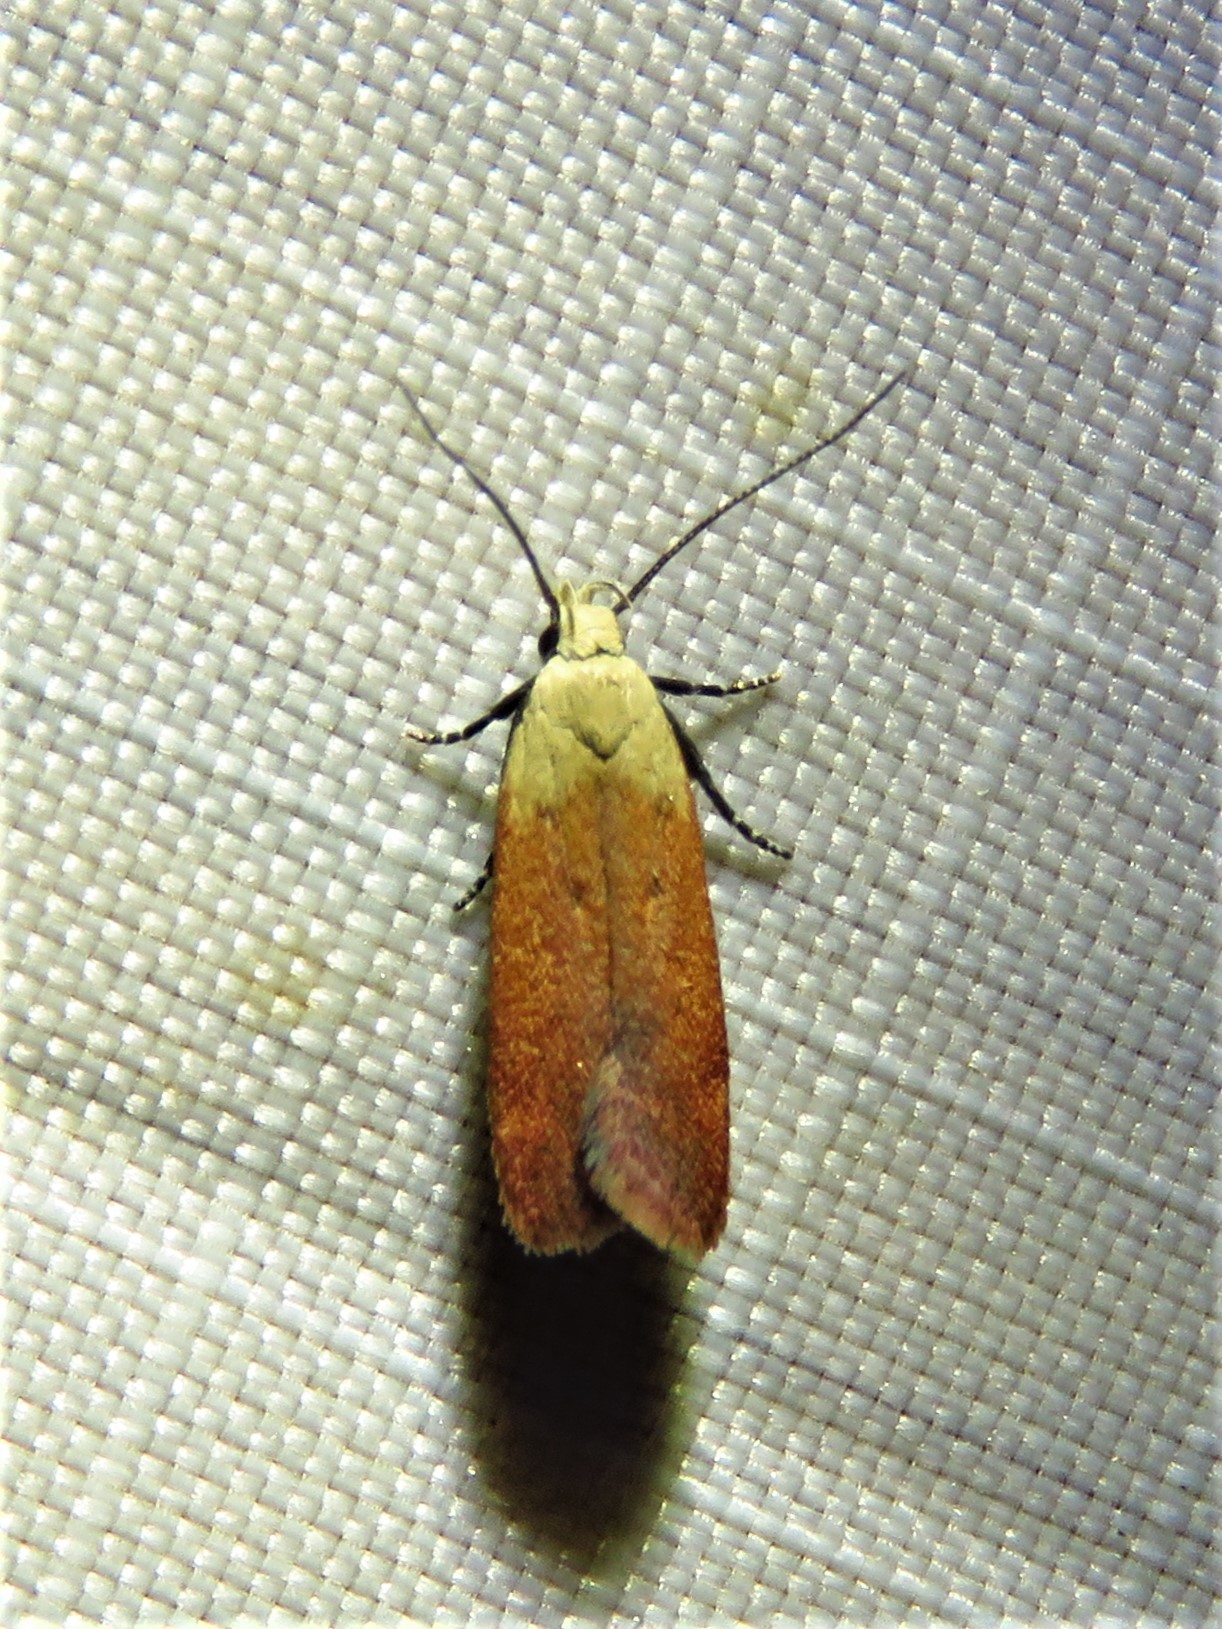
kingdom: Animalia
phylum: Arthropoda
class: Insecta
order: Lepidoptera
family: Gelechiidae
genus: Anacampsis
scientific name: Anacampsis fullonella
